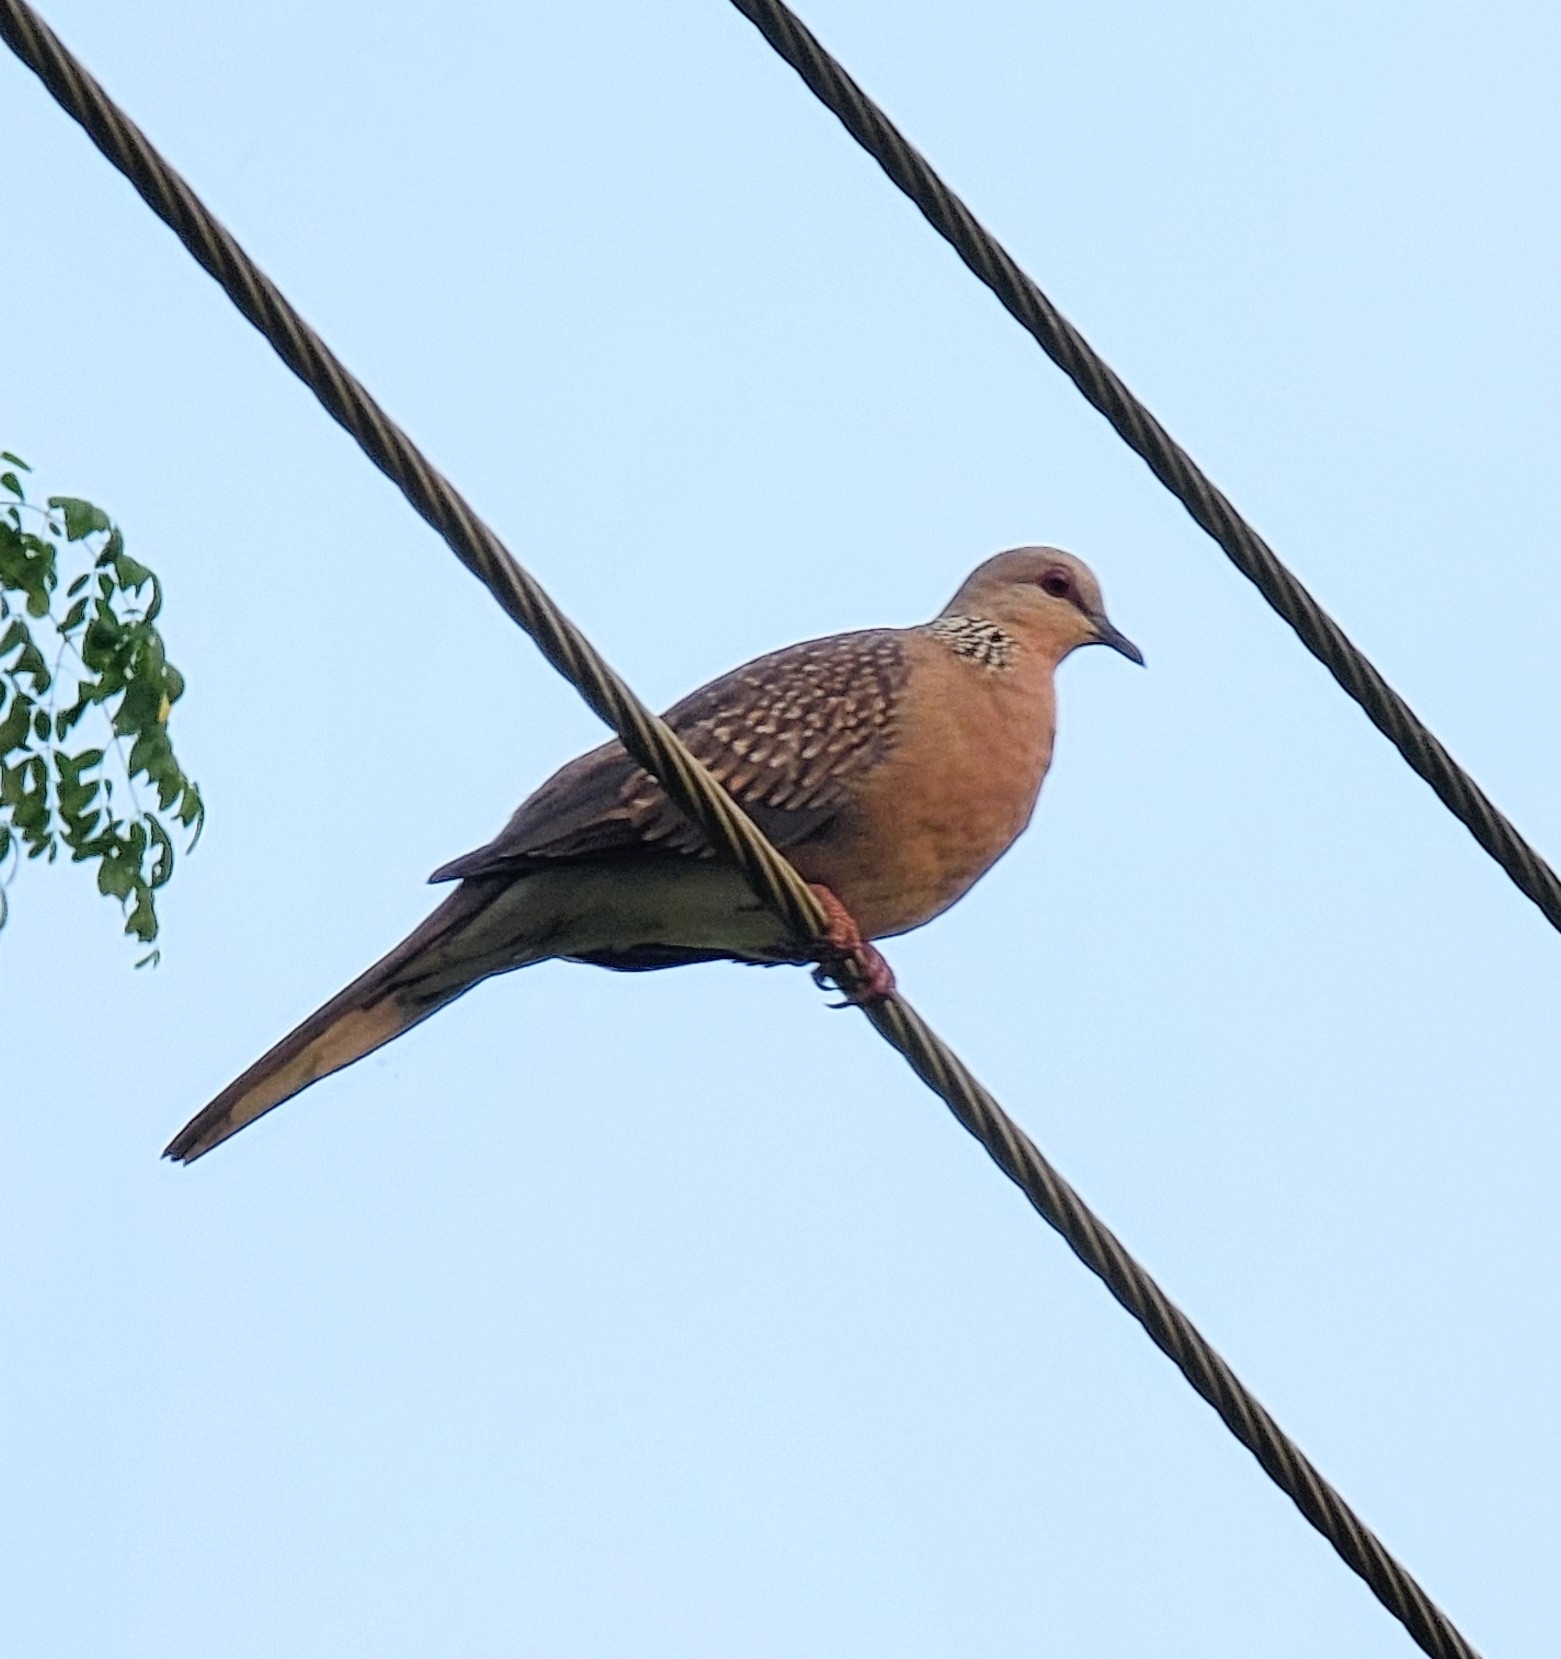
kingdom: Animalia
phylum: Chordata
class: Aves
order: Columbiformes
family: Columbidae
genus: Spilopelia
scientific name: Spilopelia chinensis
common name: Spotted dove
